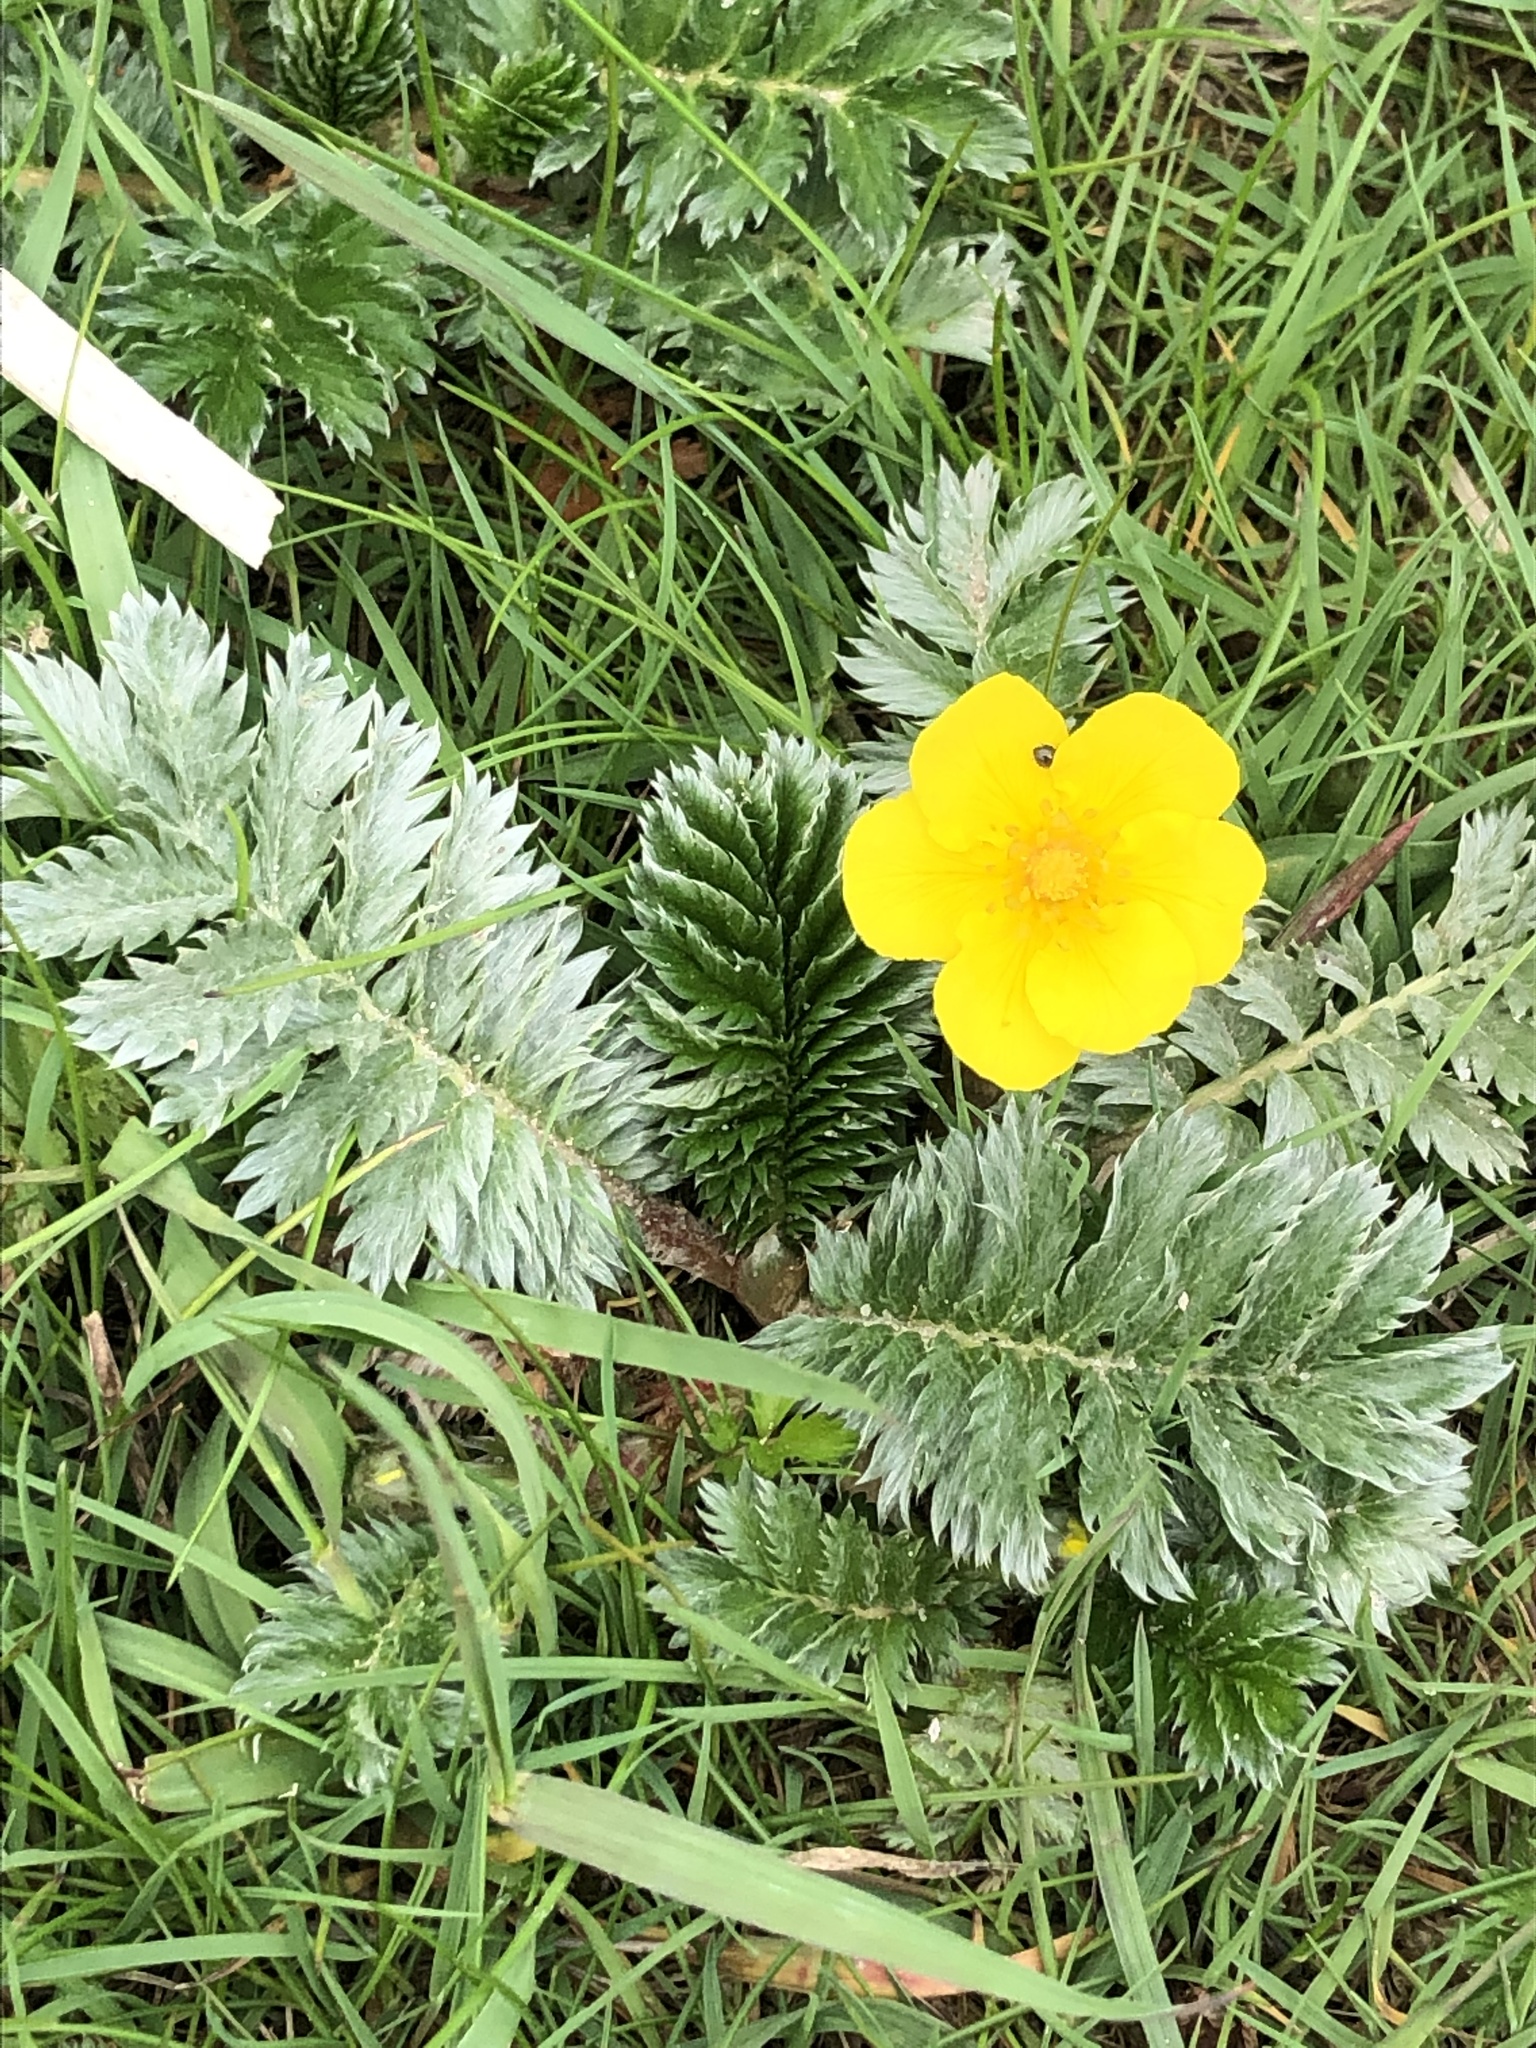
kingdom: Plantae
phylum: Tracheophyta
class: Magnoliopsida
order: Rosales
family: Rosaceae
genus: Argentina
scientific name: Argentina anserina
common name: Common silverweed
